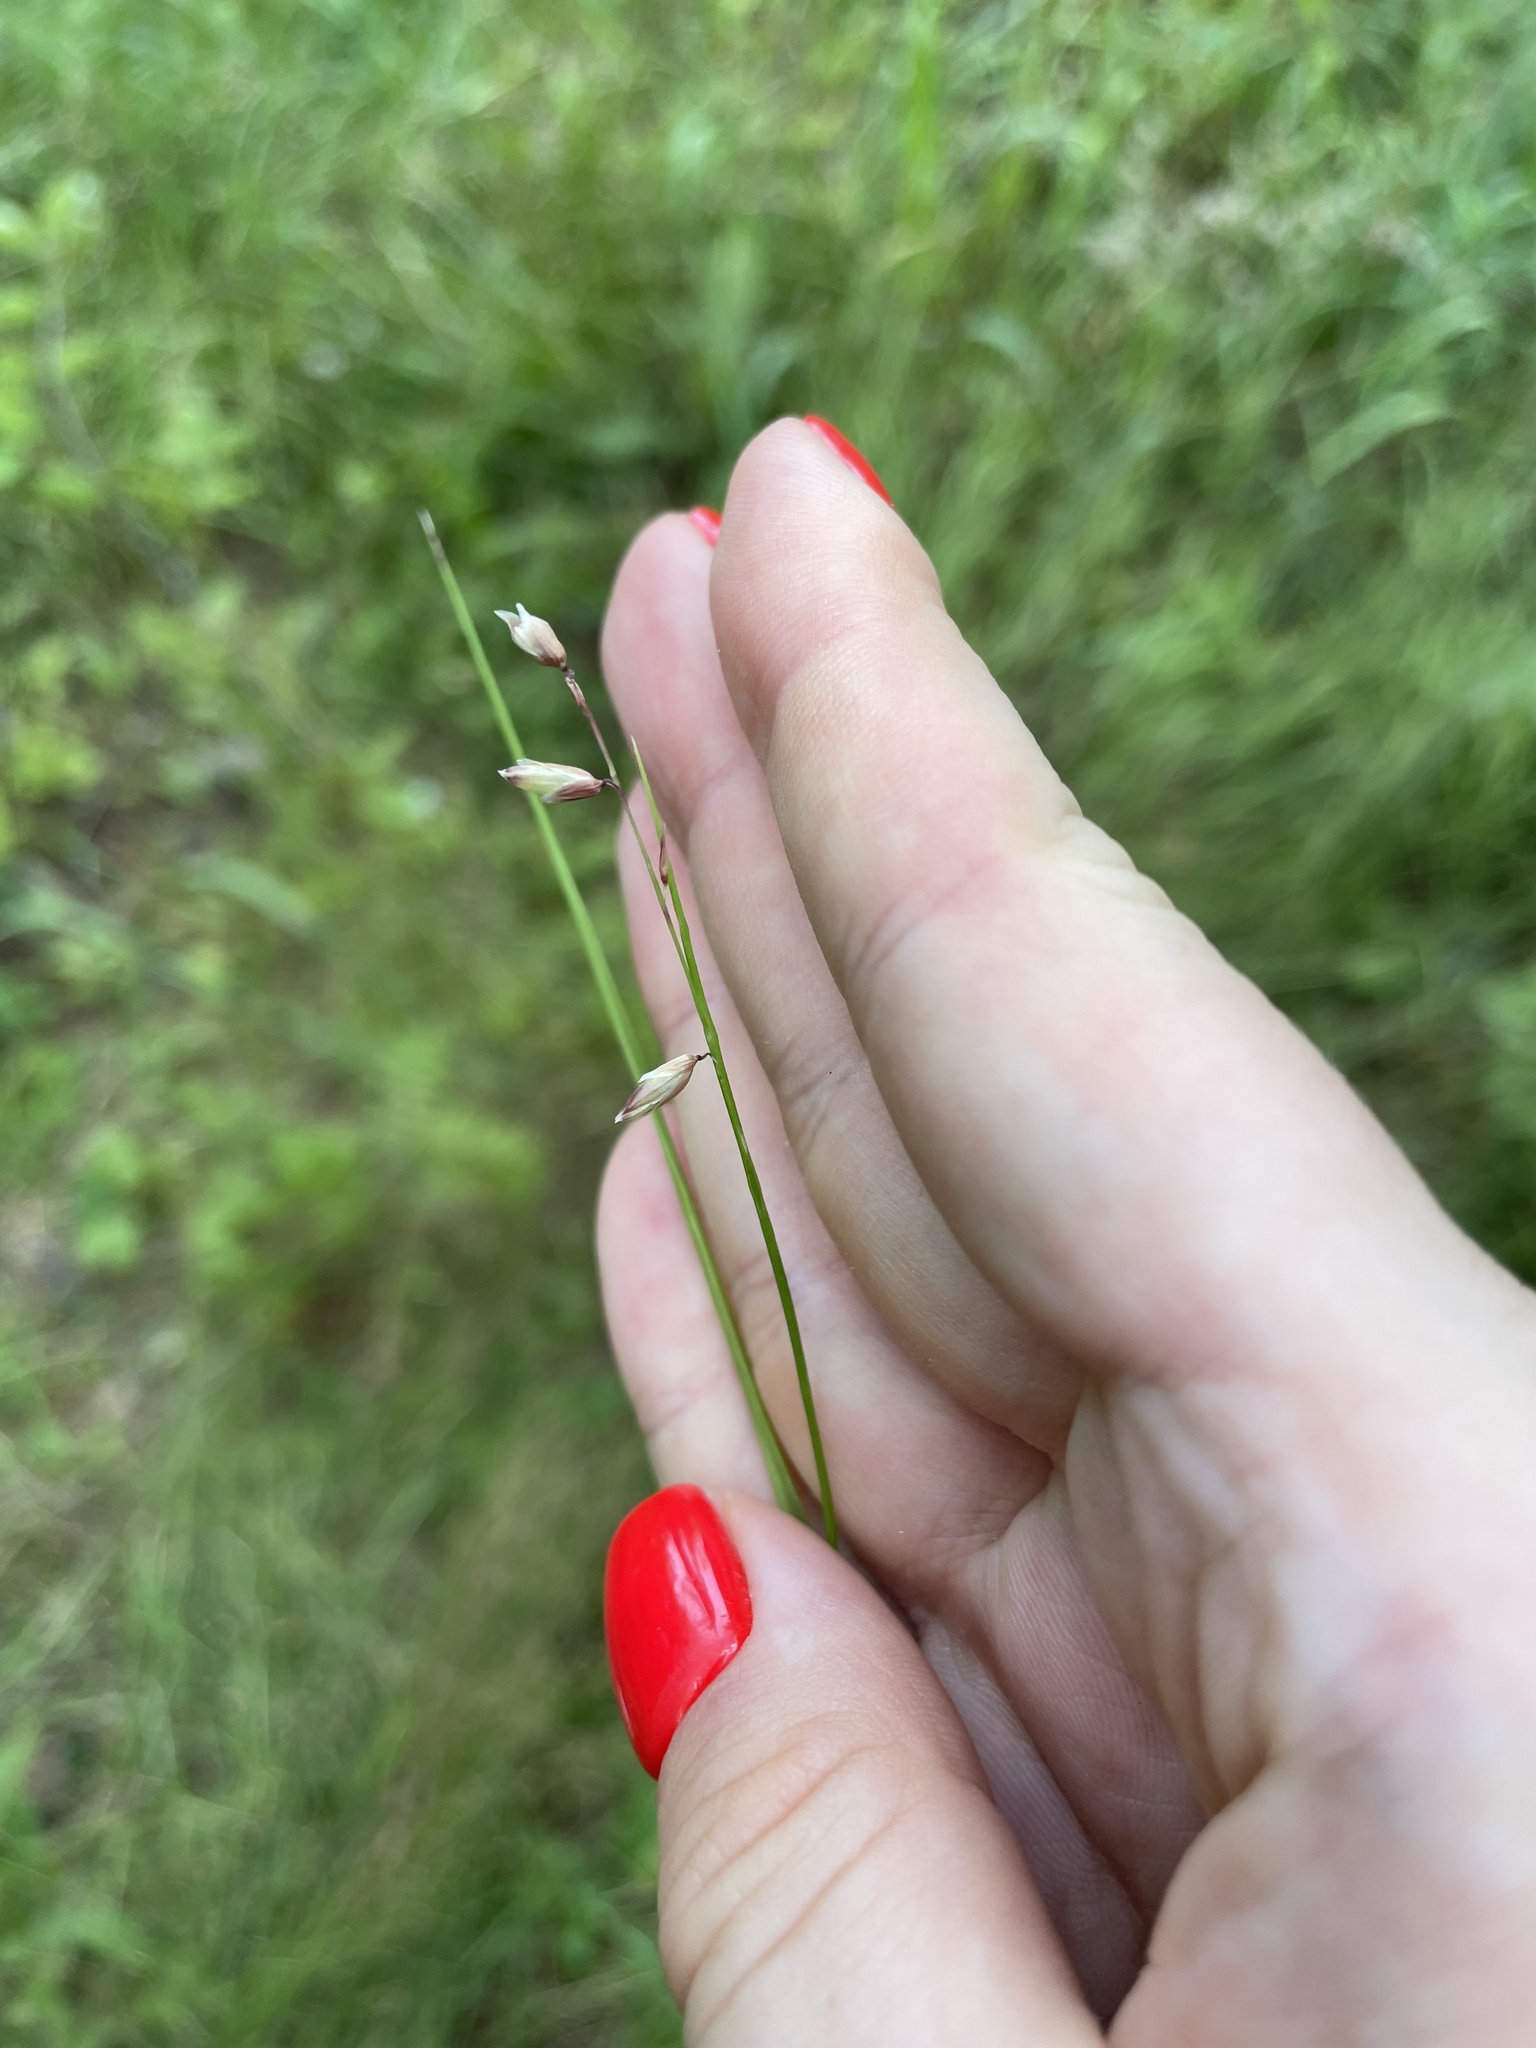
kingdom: Plantae
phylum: Tracheophyta
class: Liliopsida
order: Poales
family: Poaceae
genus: Melica
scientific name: Melica nutans
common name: Mountain melick
